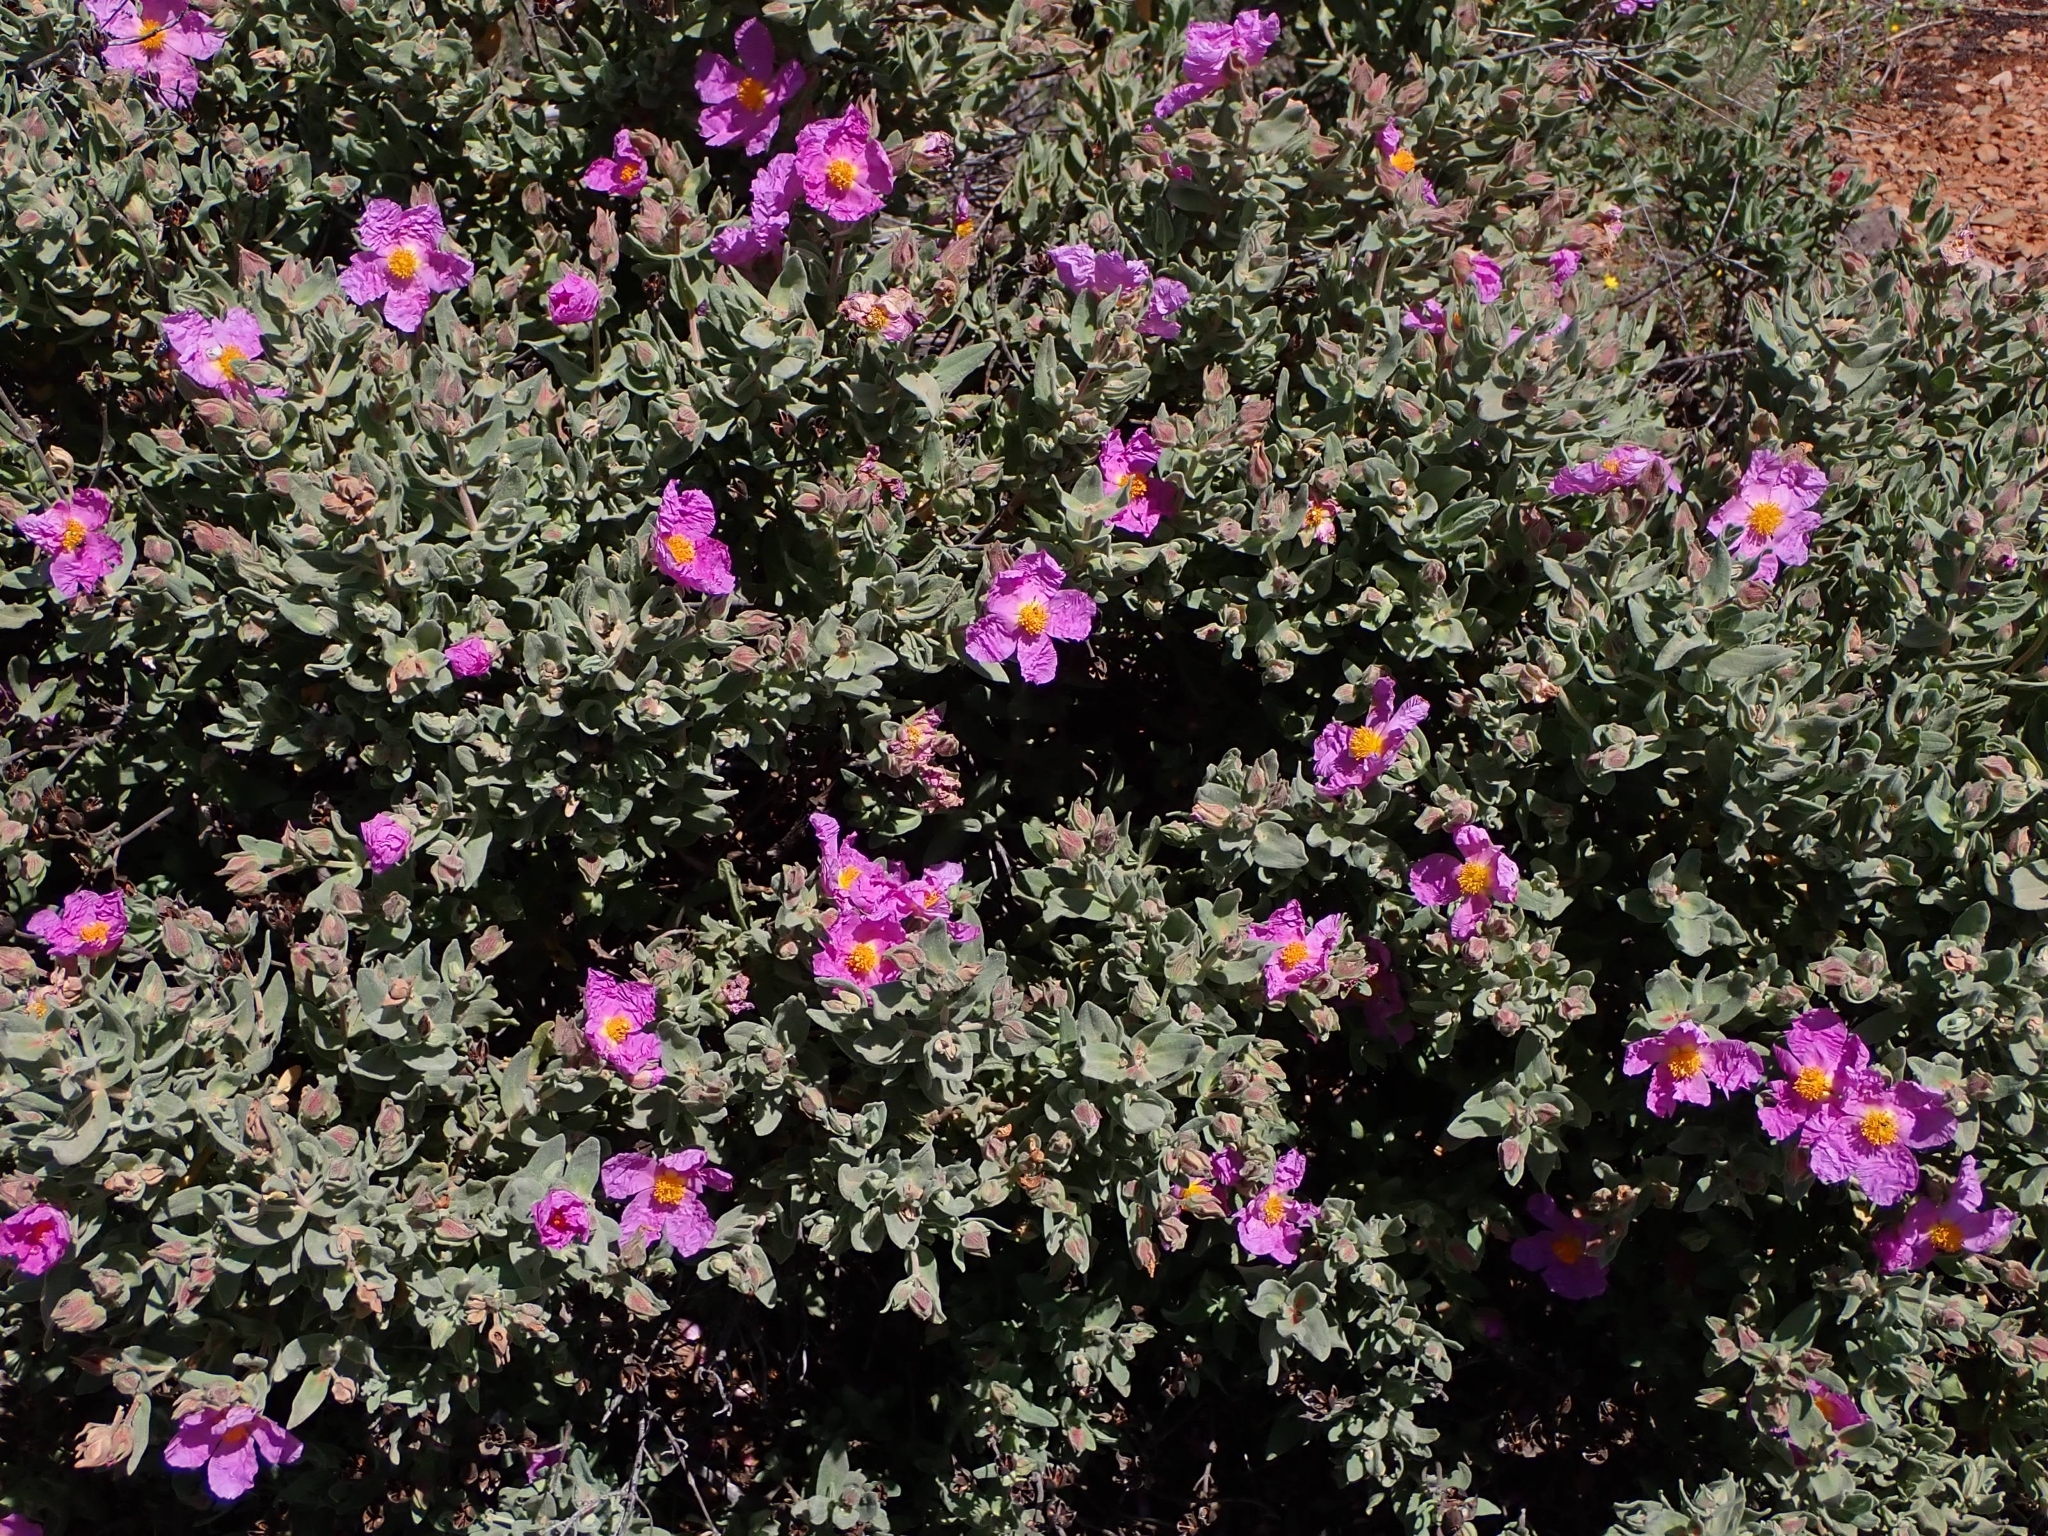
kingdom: Plantae
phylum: Tracheophyta
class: Magnoliopsida
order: Malvales
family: Cistaceae
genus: Cistus
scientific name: Cistus albidus
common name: White-leaf rock-rose
